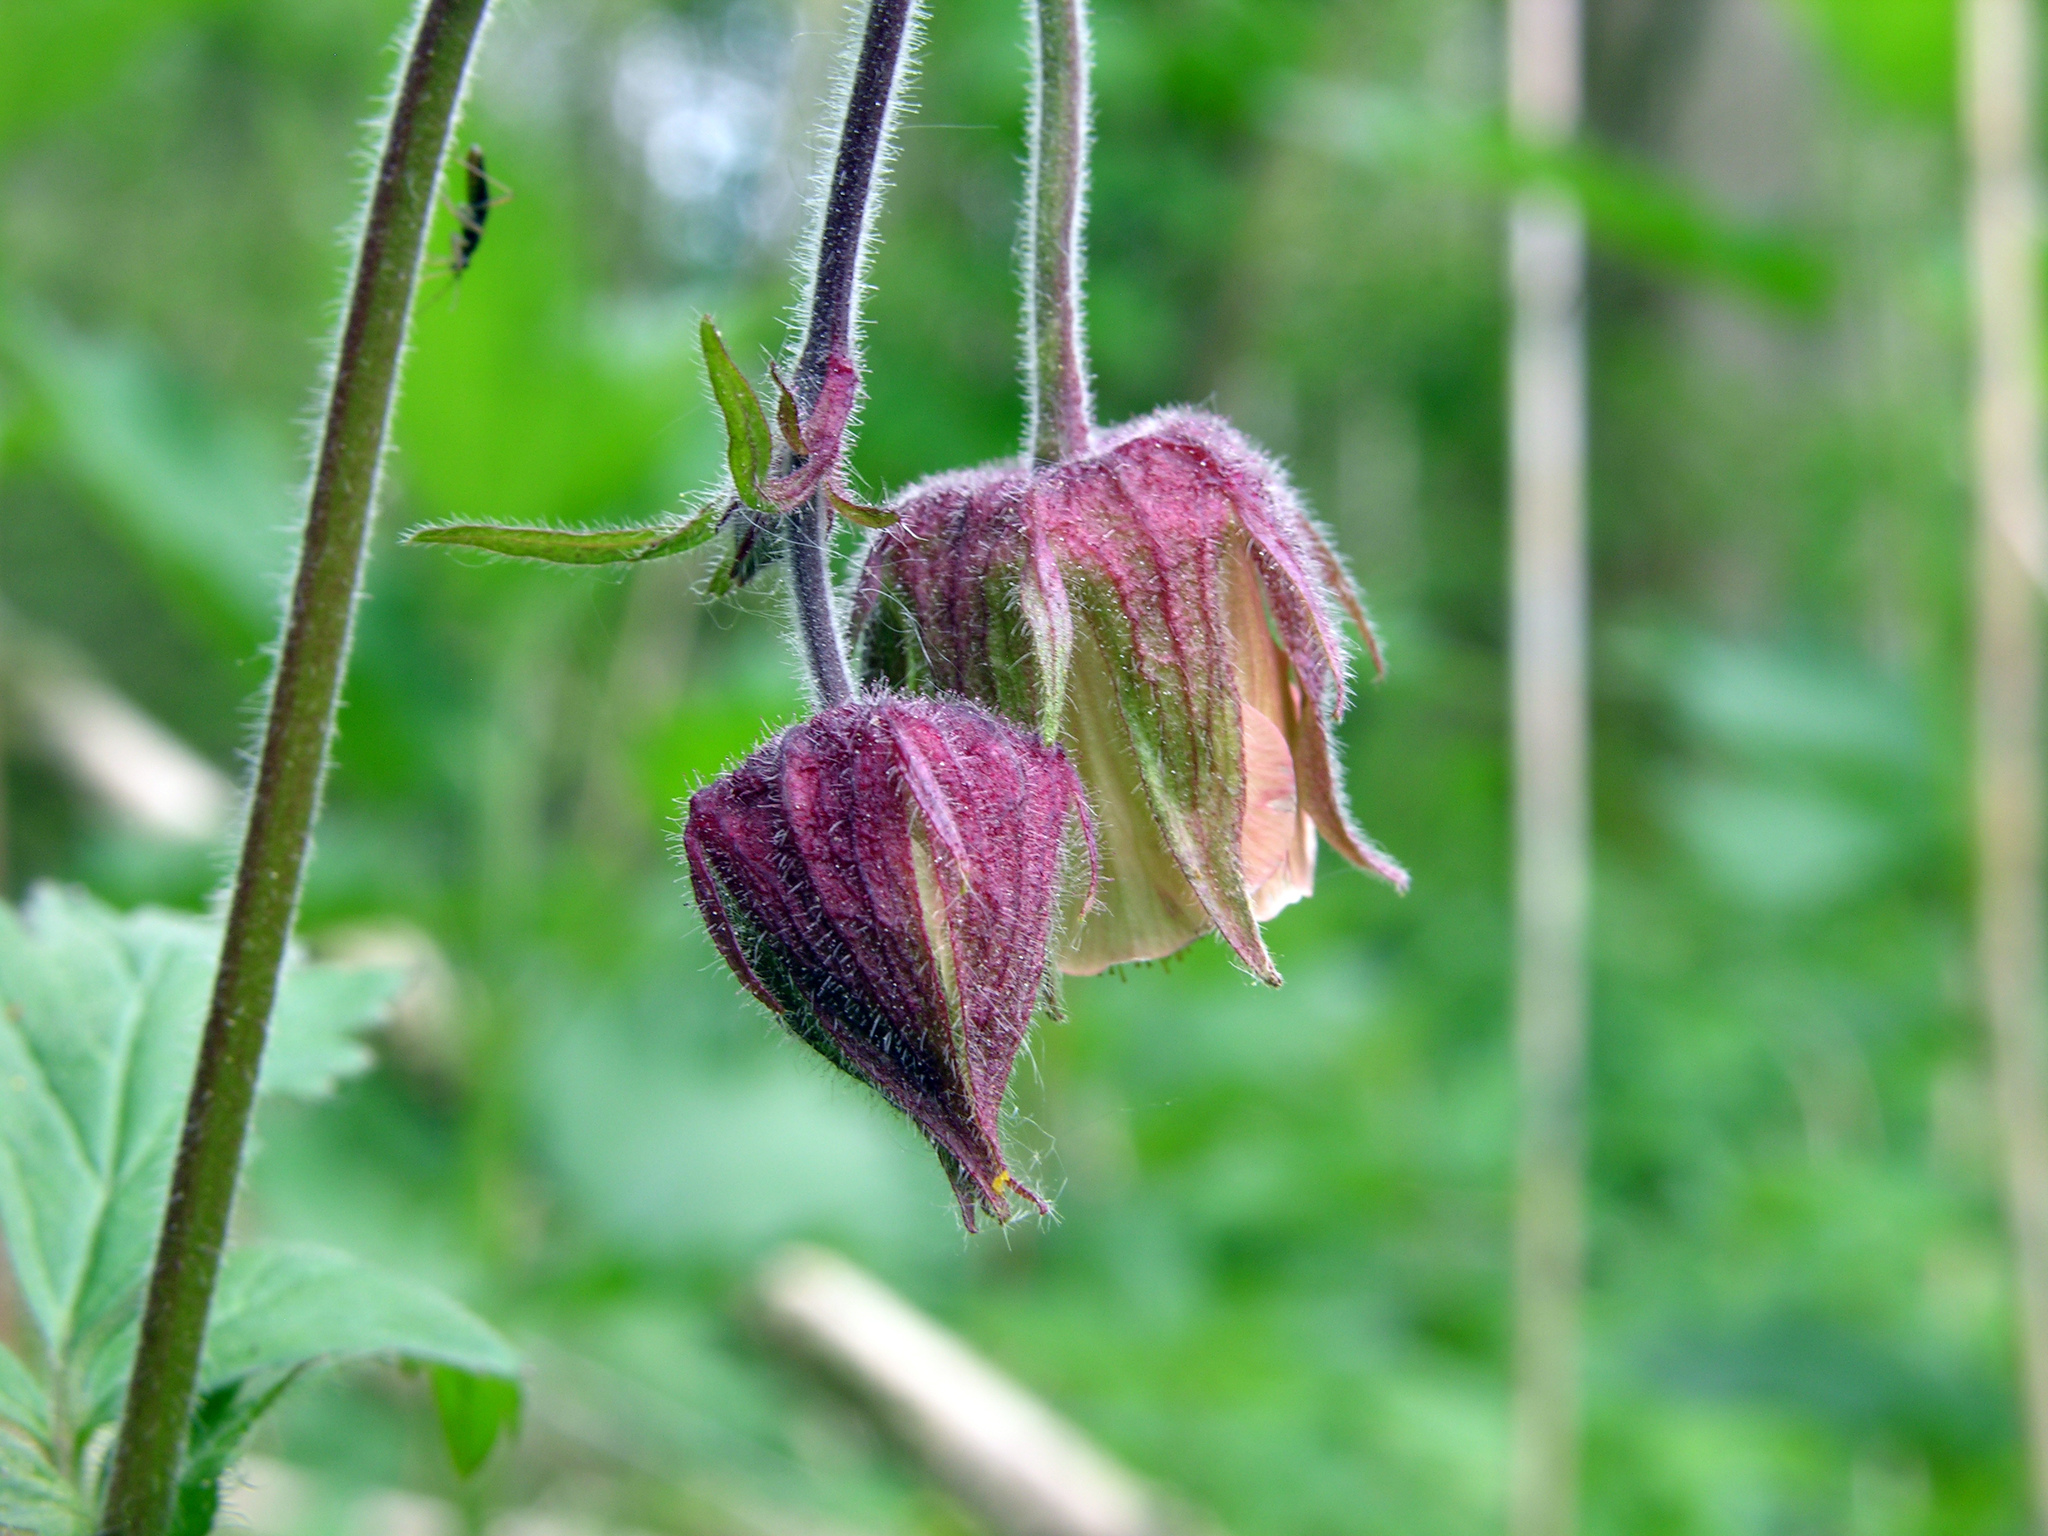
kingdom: Plantae
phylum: Tracheophyta
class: Magnoliopsida
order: Rosales
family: Rosaceae
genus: Geum
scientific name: Geum rivale
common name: Water avens
